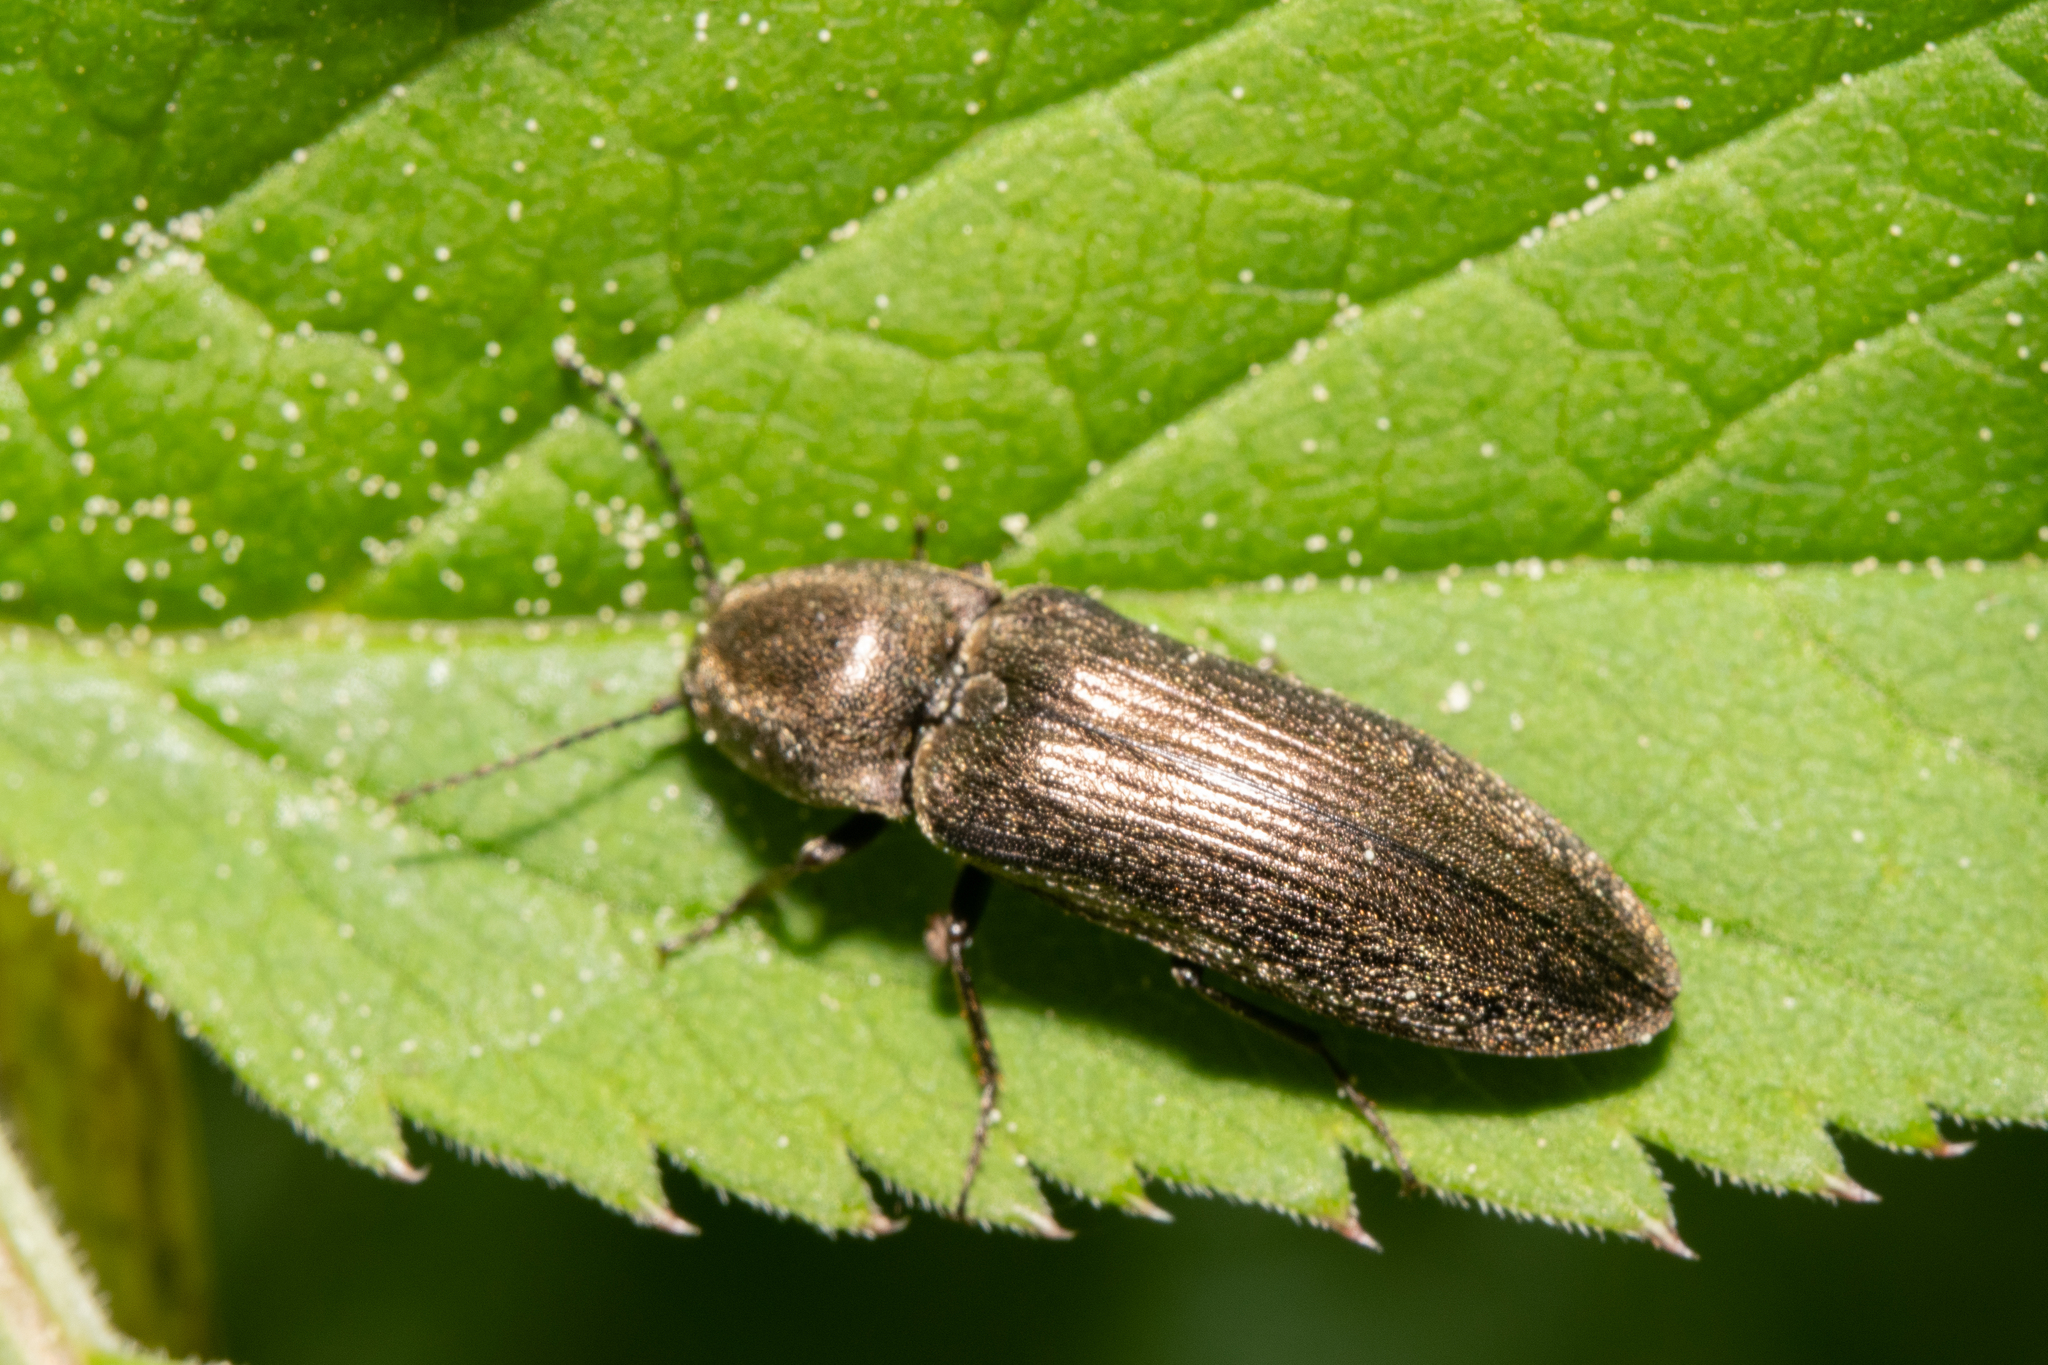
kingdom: Animalia
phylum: Arthropoda
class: Insecta
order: Coleoptera
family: Elateridae
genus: Cidnopus
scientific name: Cidnopus aeruginosus
